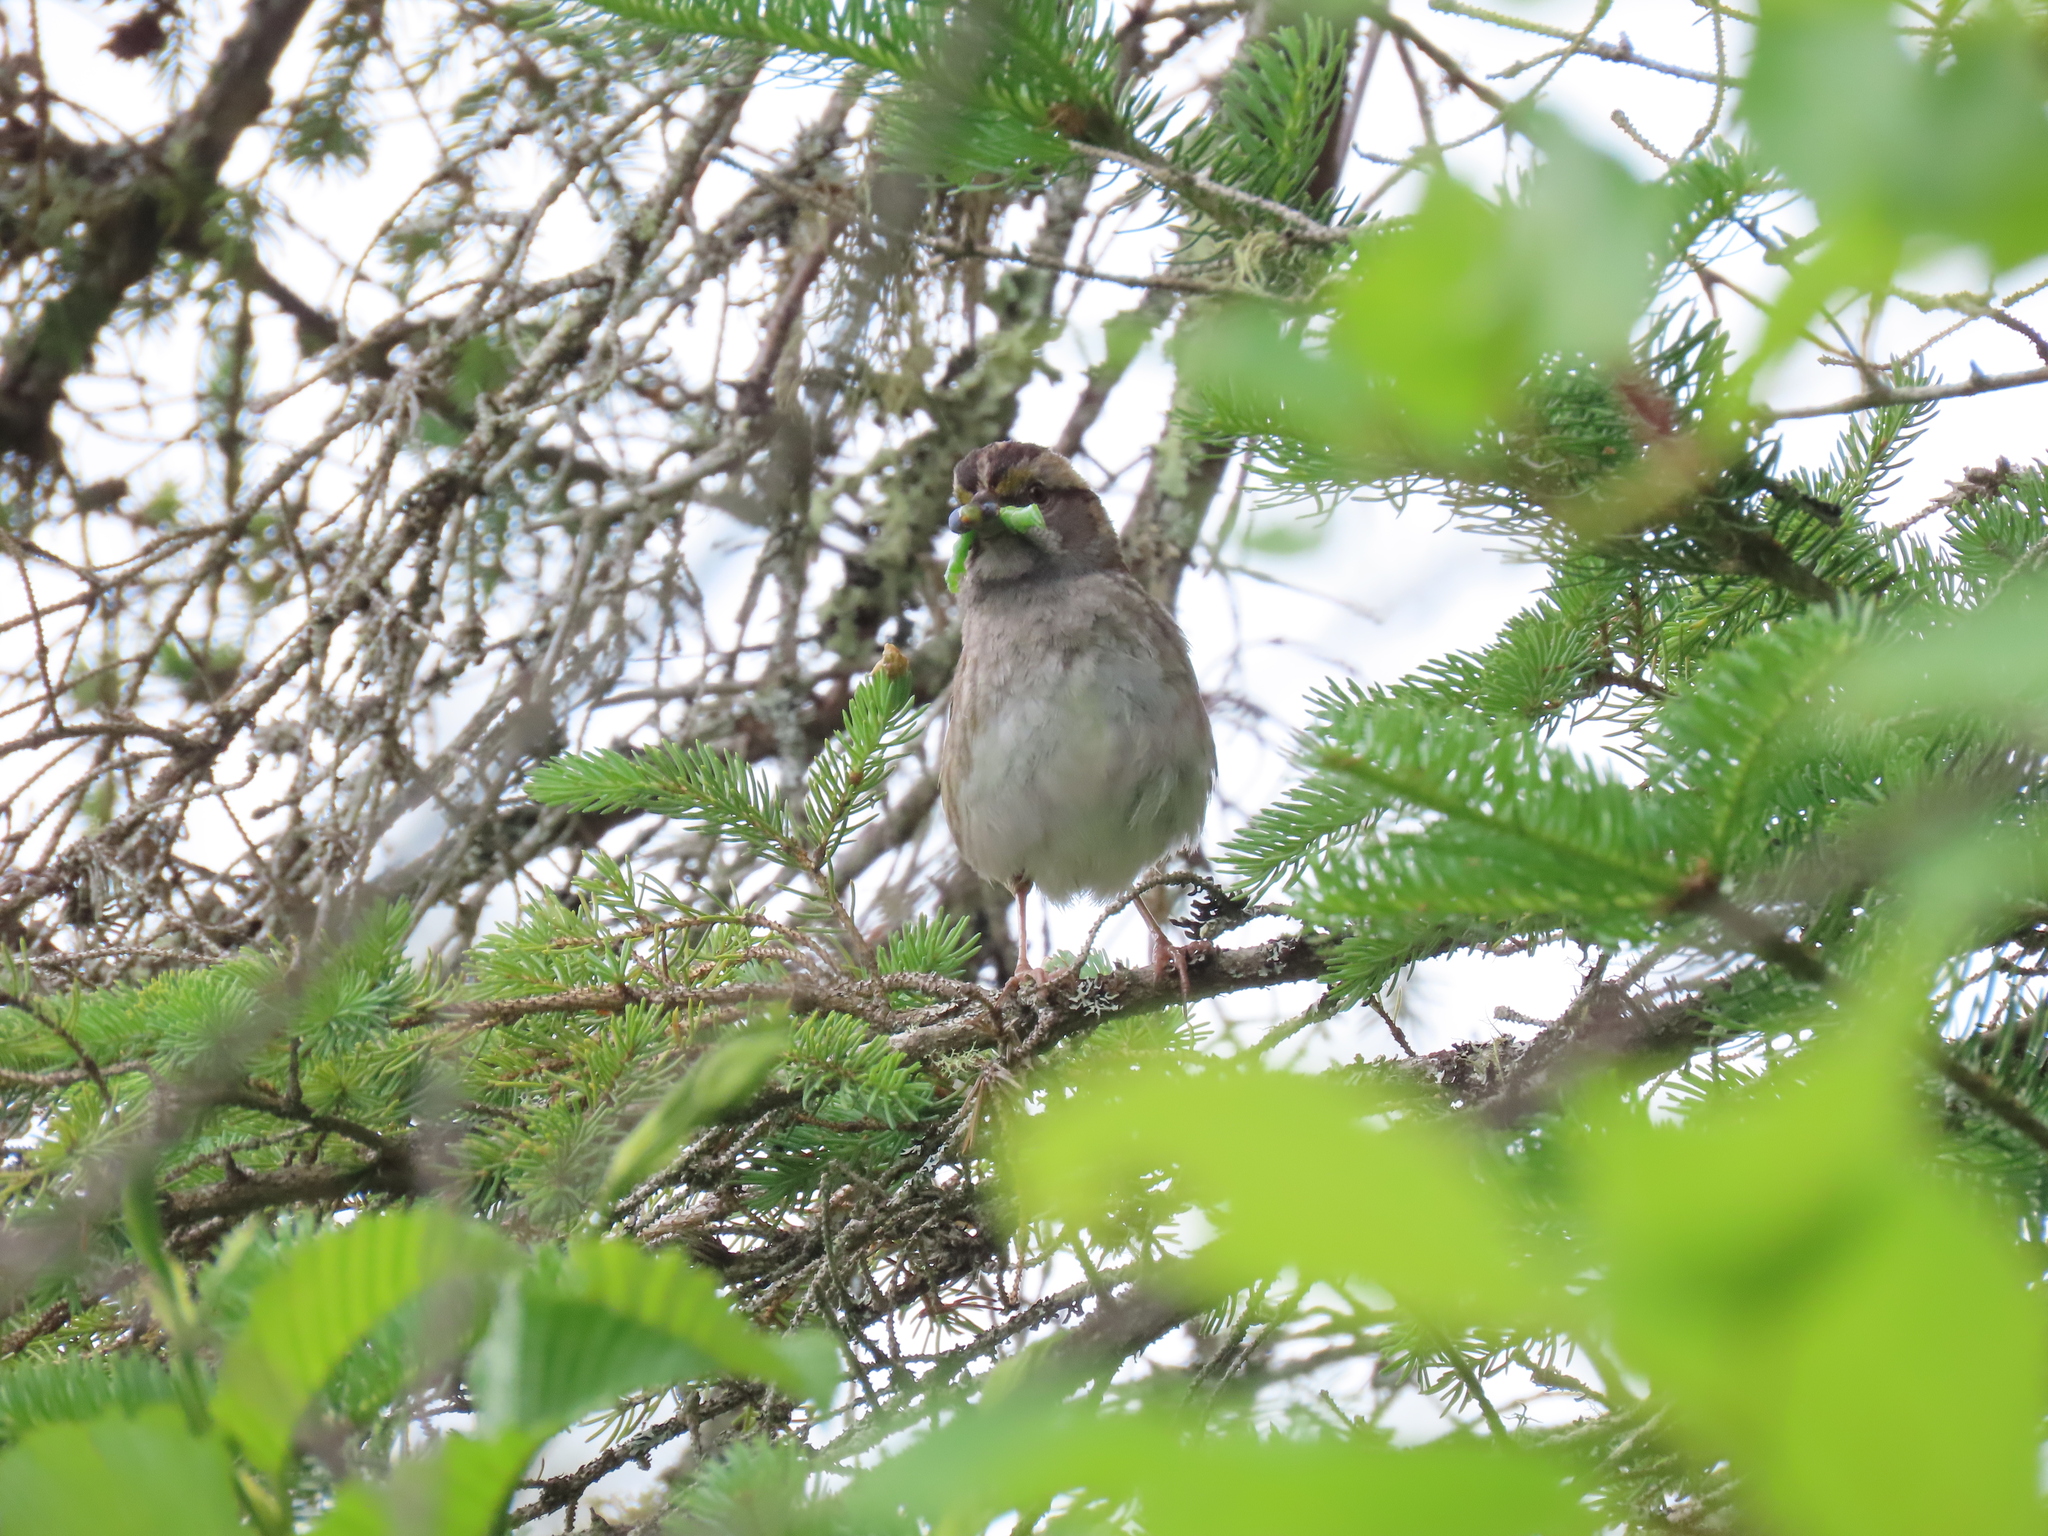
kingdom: Animalia
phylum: Chordata
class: Aves
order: Passeriformes
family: Passerellidae
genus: Zonotrichia
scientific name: Zonotrichia albicollis
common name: White-throated sparrow
